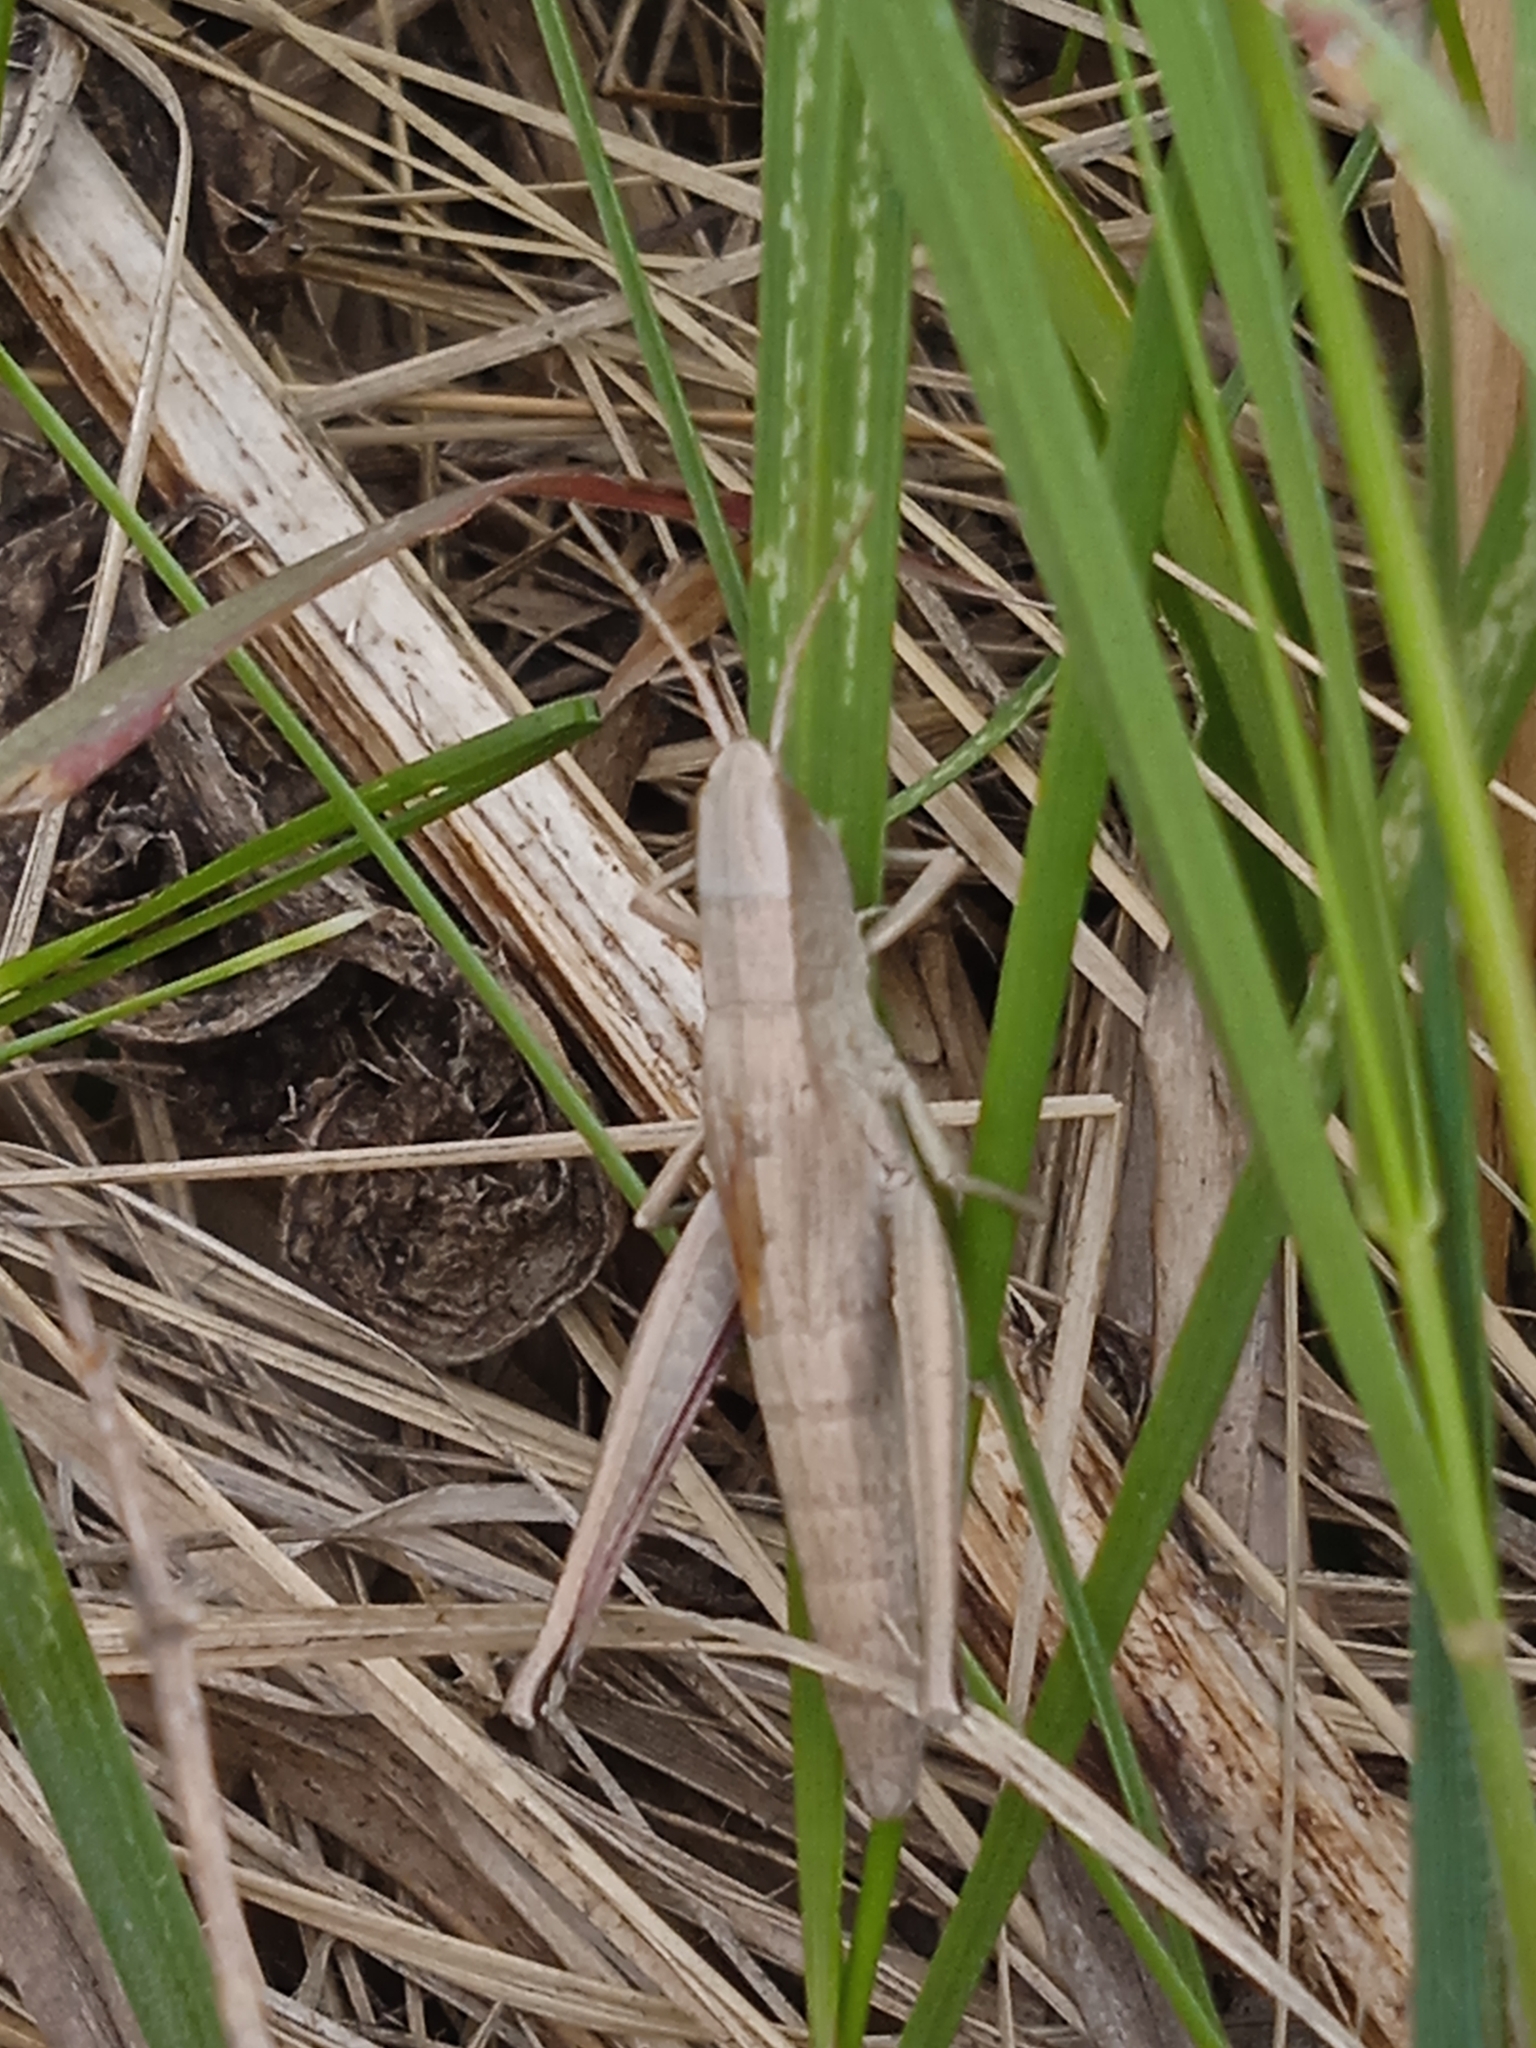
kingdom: Animalia
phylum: Arthropoda
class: Insecta
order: Orthoptera
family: Acrididae
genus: Chrysochraon
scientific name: Chrysochraon dispar
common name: Large gold grasshopper
